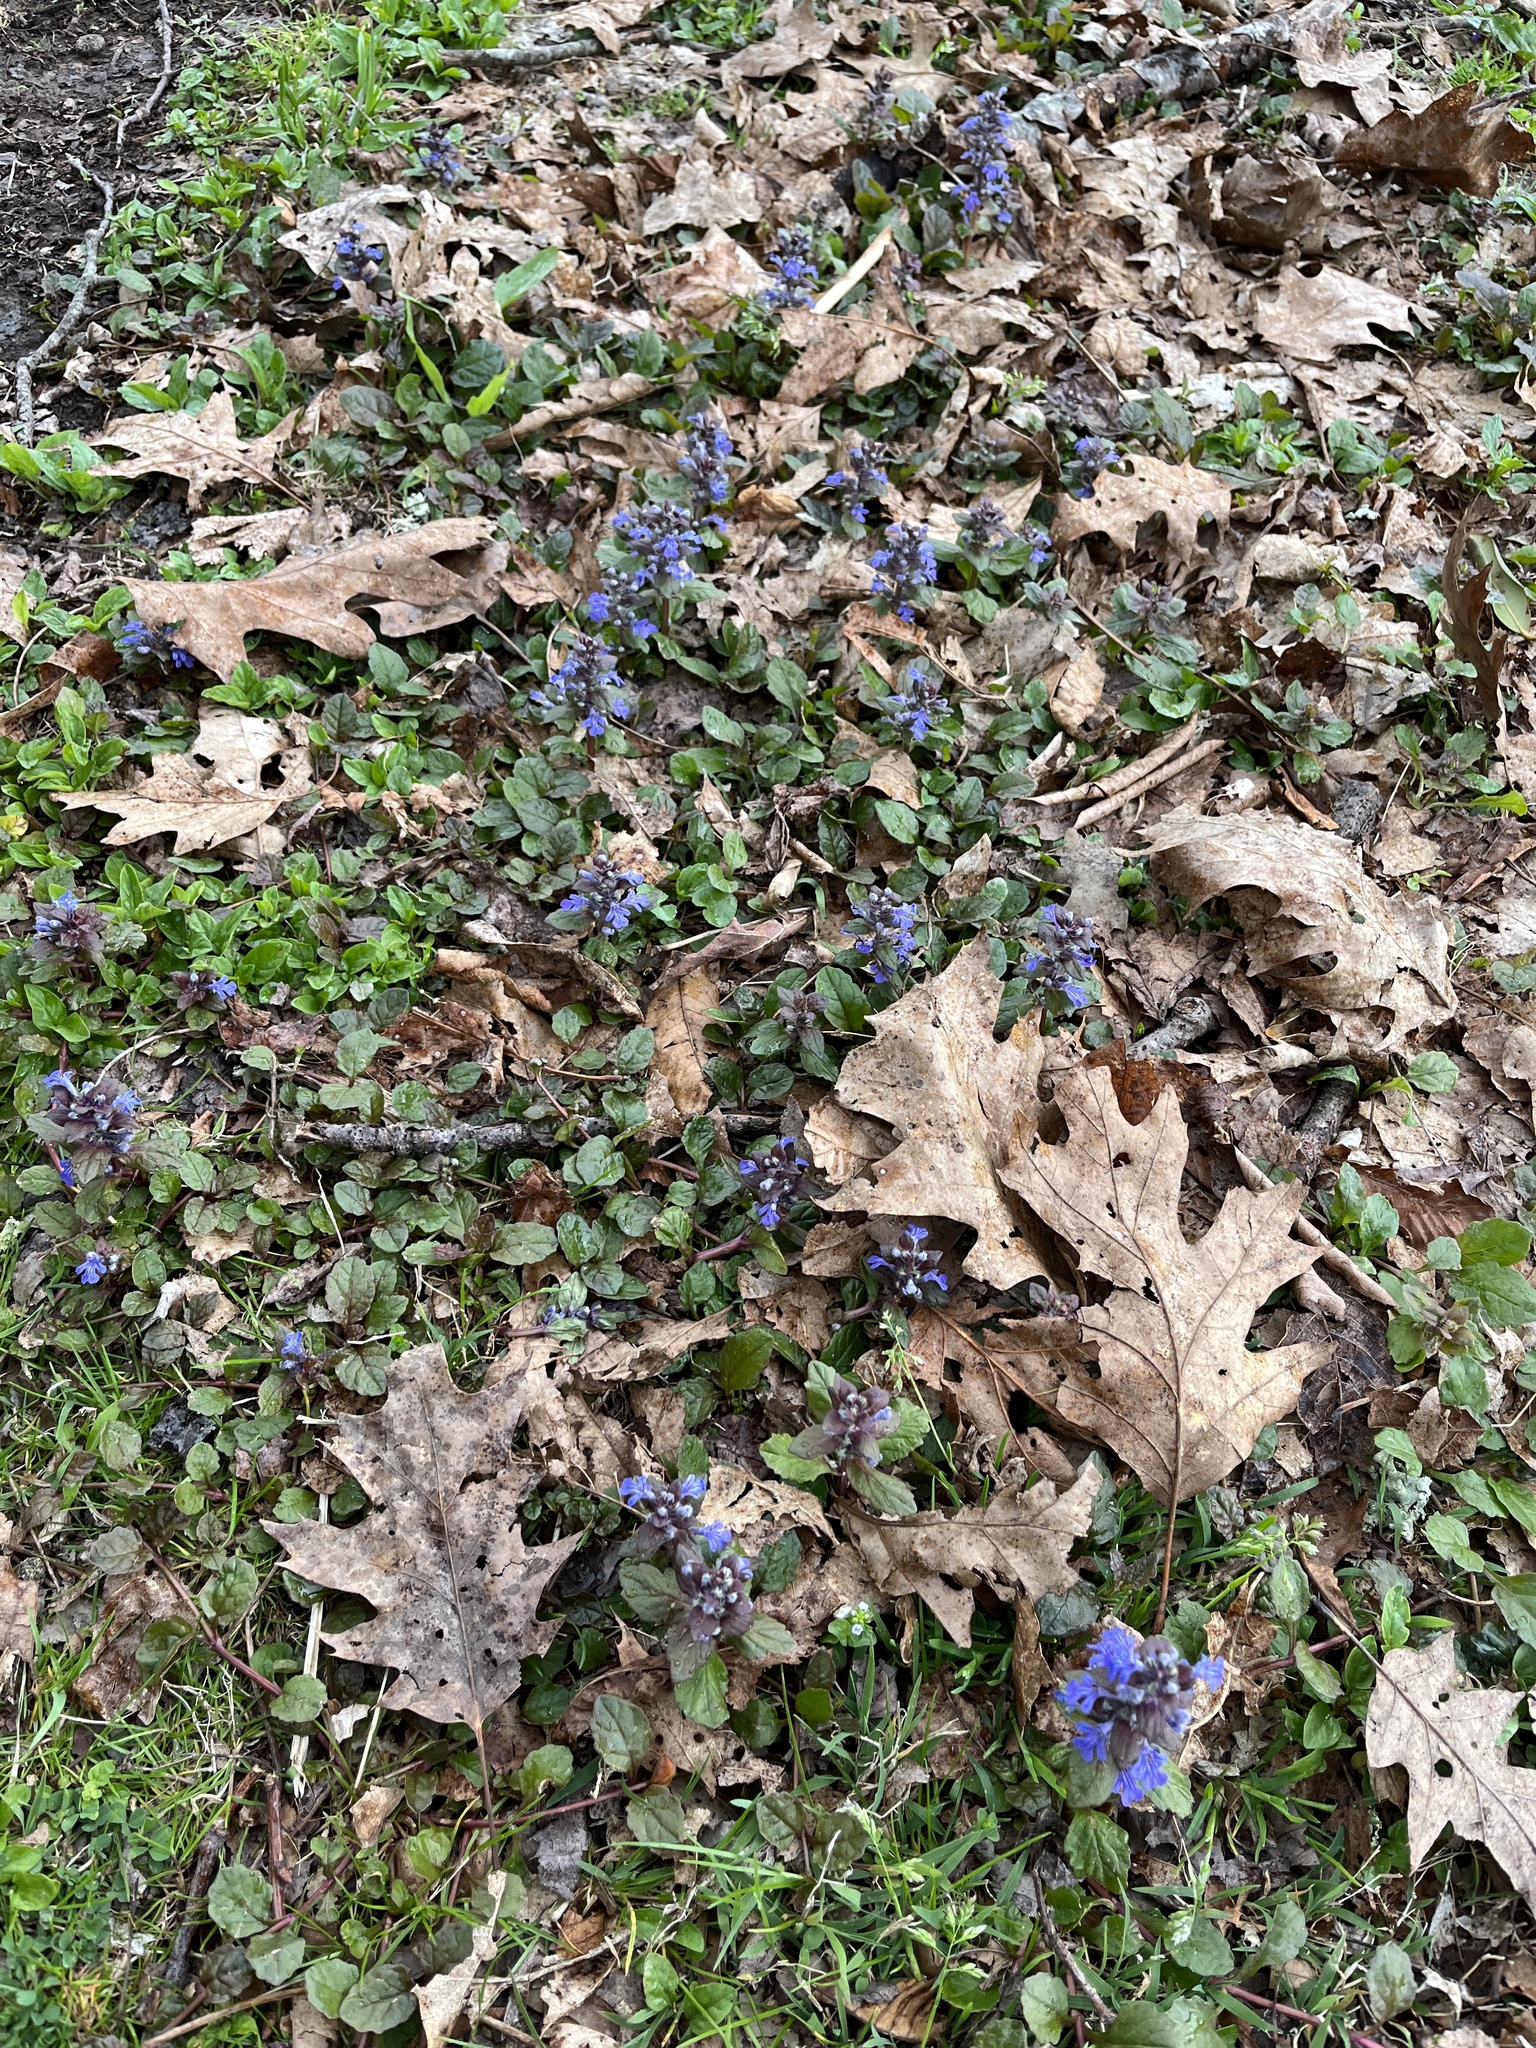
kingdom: Plantae
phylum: Tracheophyta
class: Magnoliopsida
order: Lamiales
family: Lamiaceae
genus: Ajuga
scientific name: Ajuga reptans
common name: Bugle
